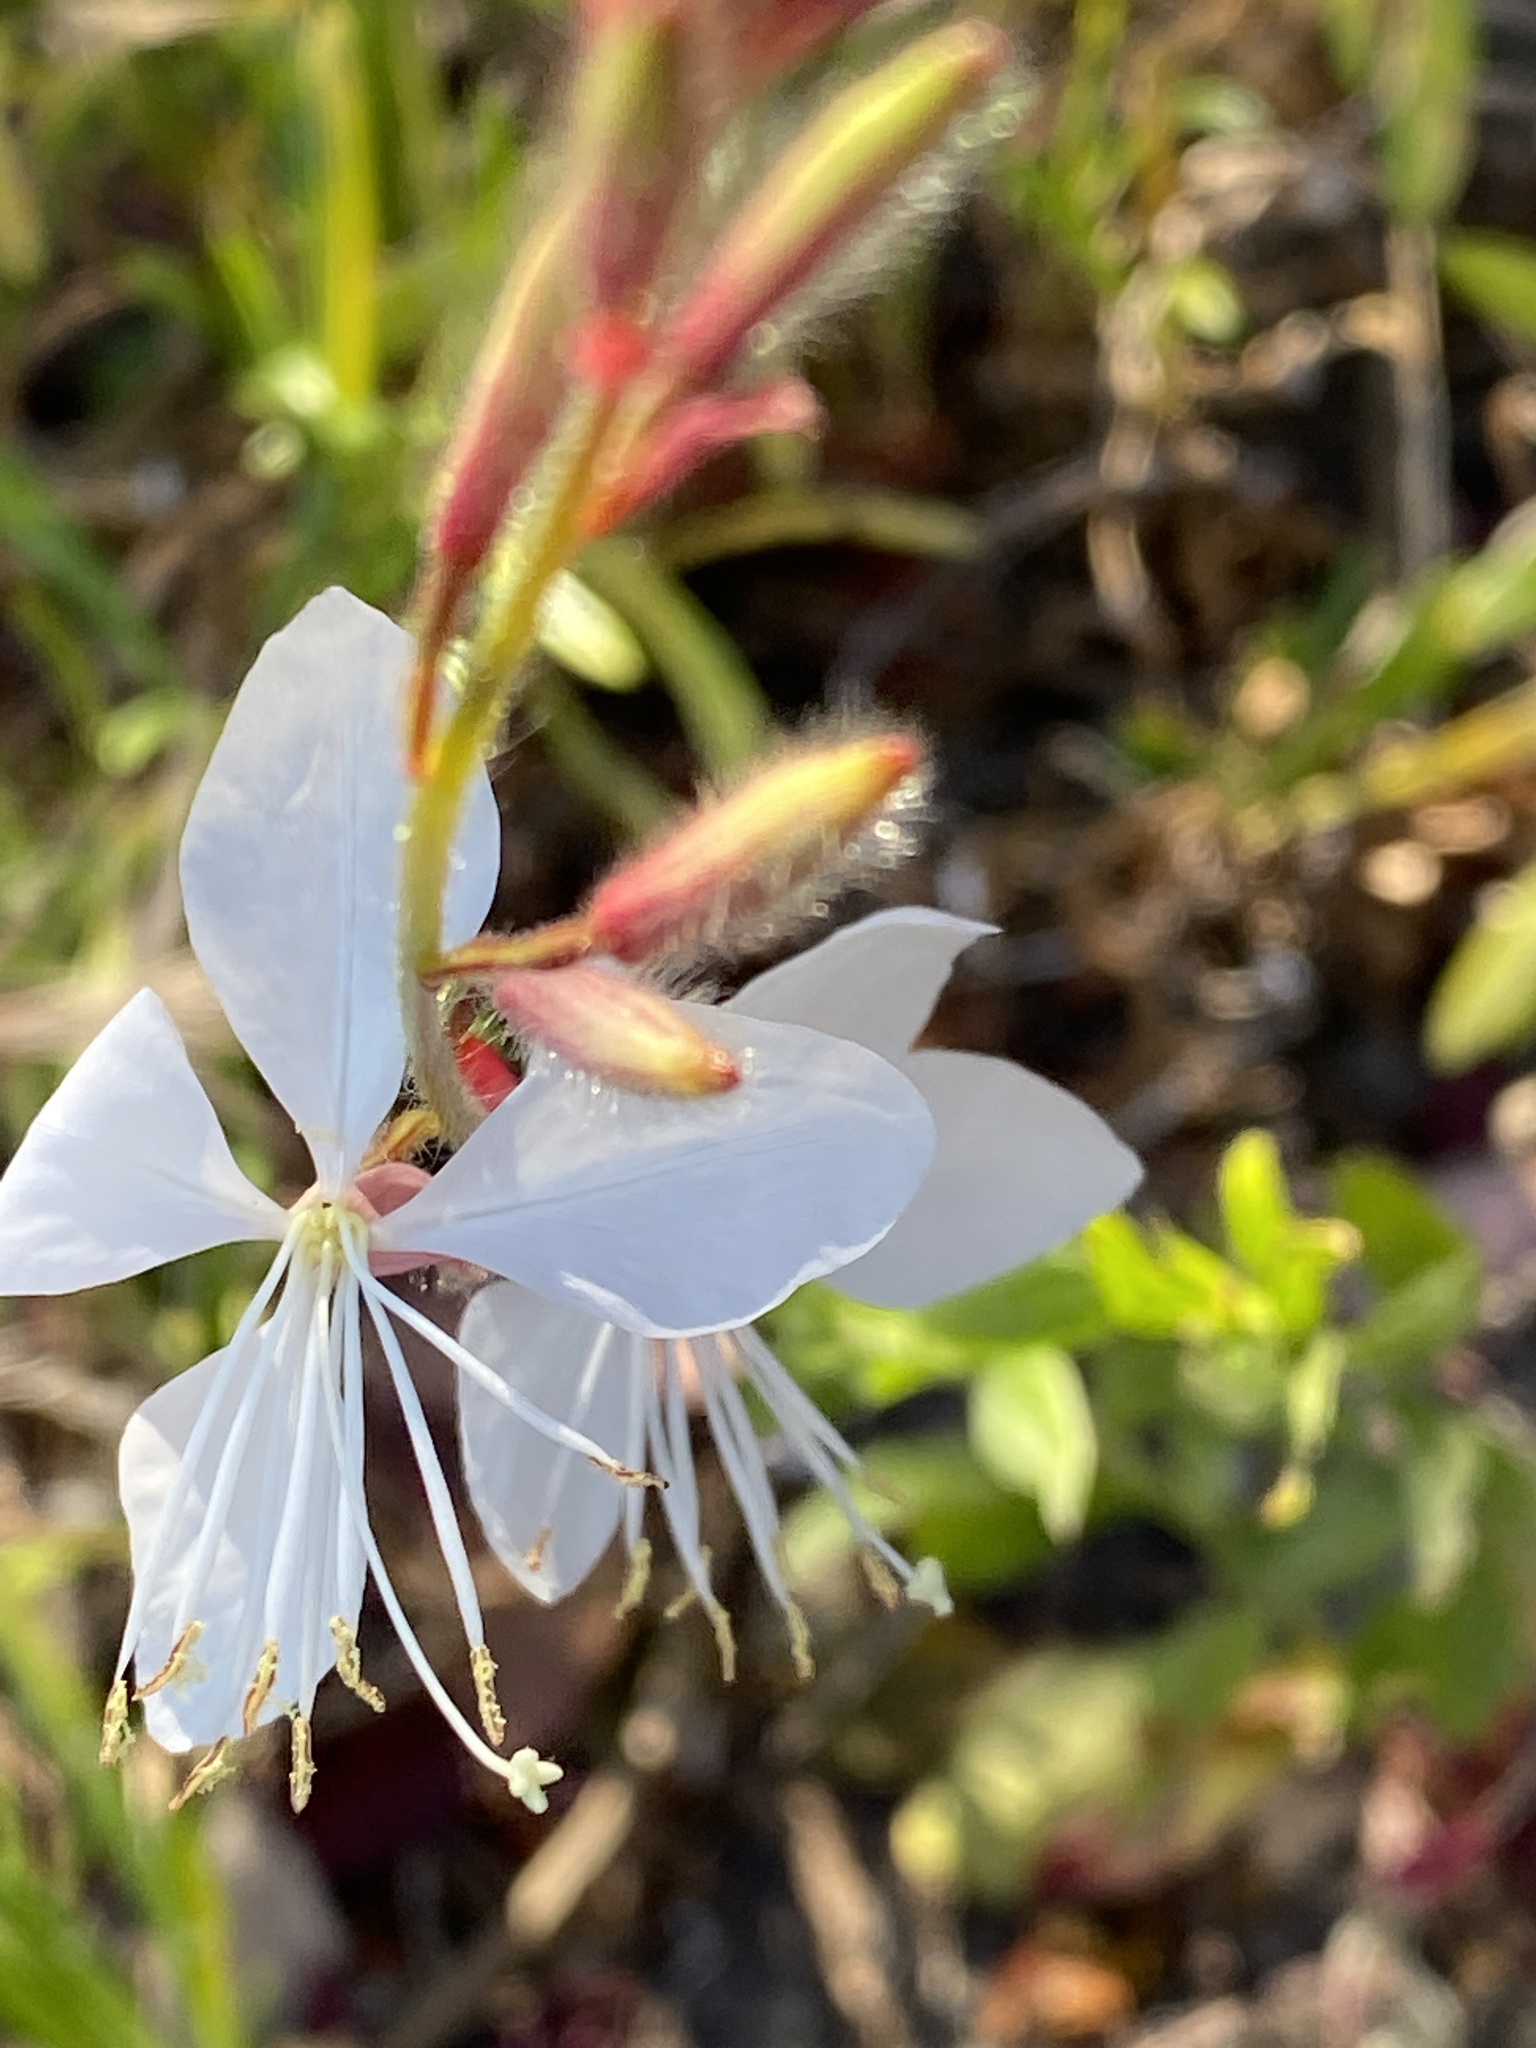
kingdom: Plantae
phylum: Tracheophyta
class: Magnoliopsida
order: Myrtales
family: Onagraceae
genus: Oenothera
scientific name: Oenothera lindheimeri
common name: Lindheimer's beeblossom
